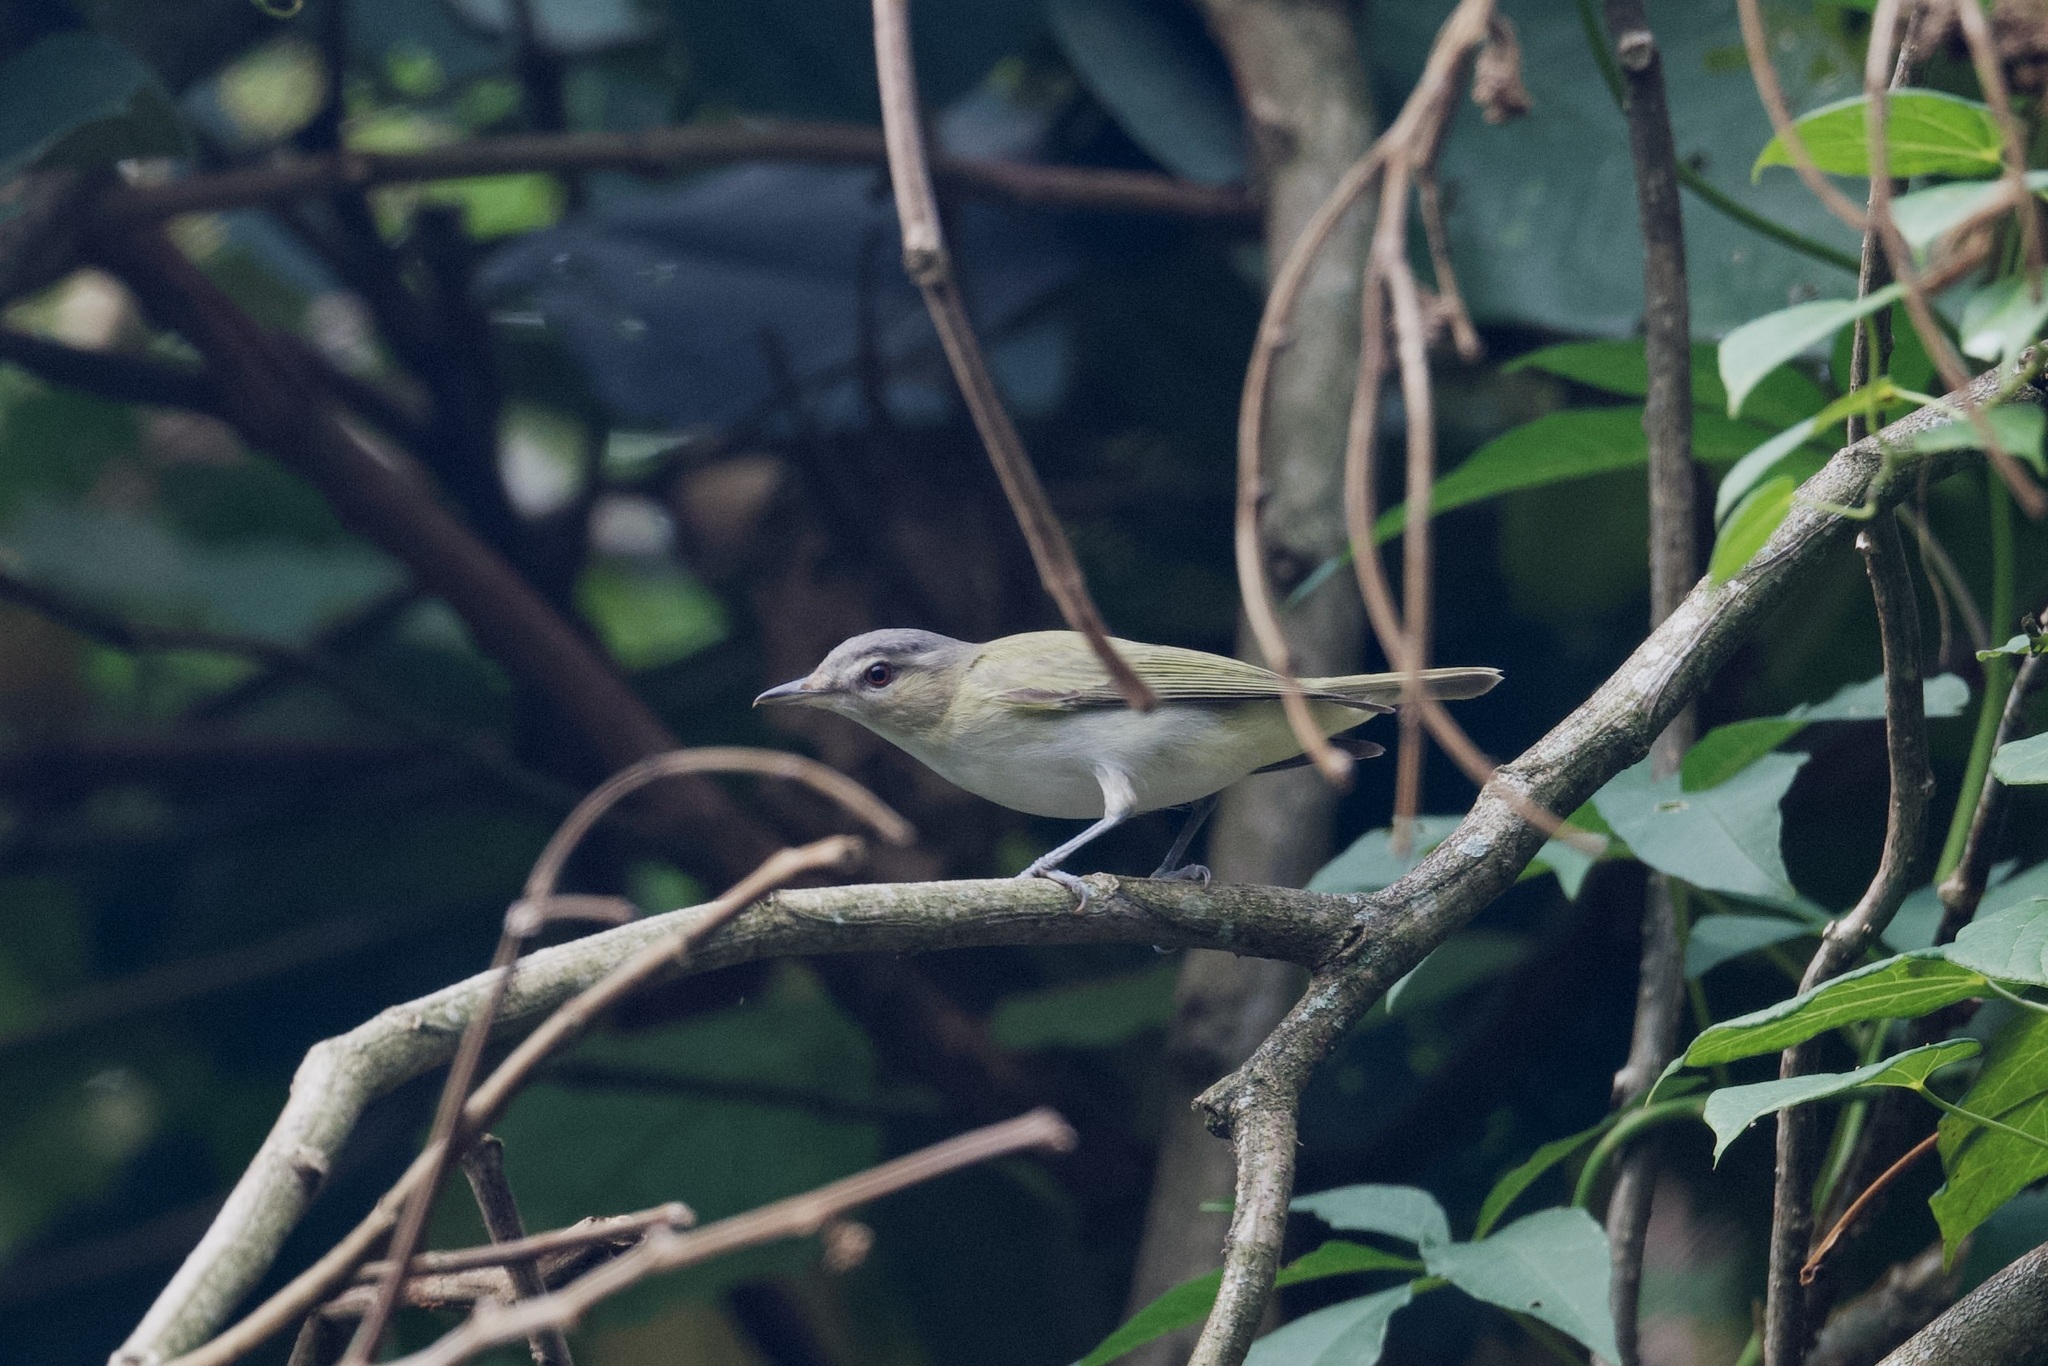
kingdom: Animalia
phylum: Chordata
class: Aves
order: Passeriformes
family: Vireonidae
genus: Vireo
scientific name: Vireo olivaceus
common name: Red-eyed vireo
